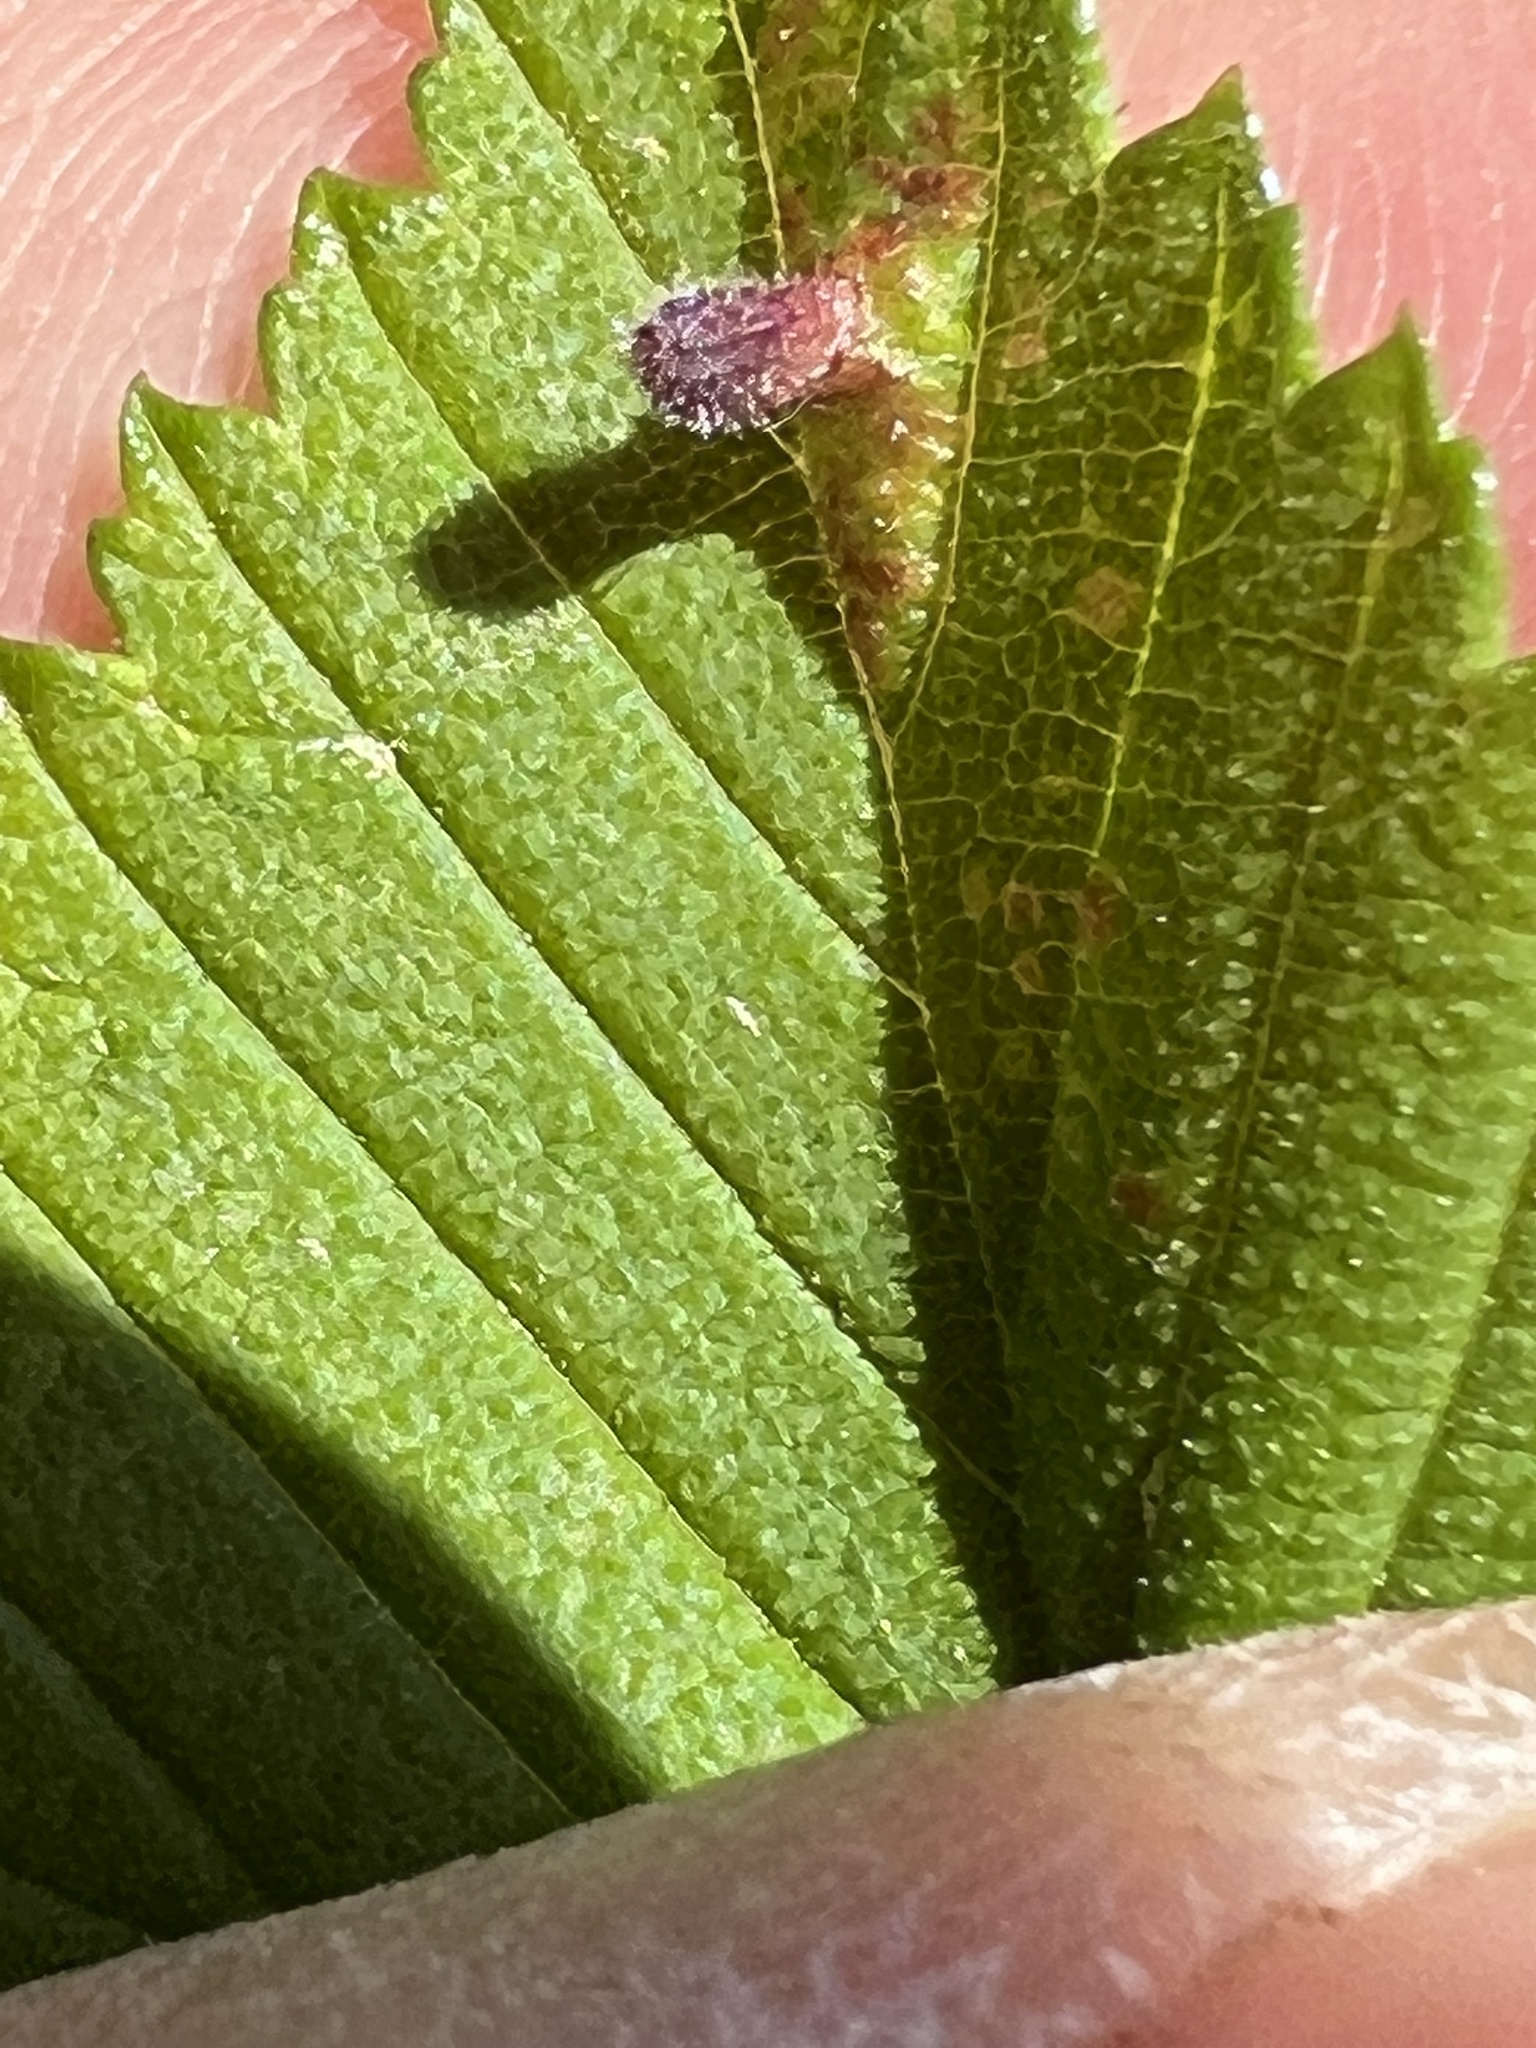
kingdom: Animalia
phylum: Arthropoda
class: Insecta
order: Hemiptera
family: Aphididae
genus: Tetraneura
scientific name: Tetraneura nigriabdominalis
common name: Aphid
